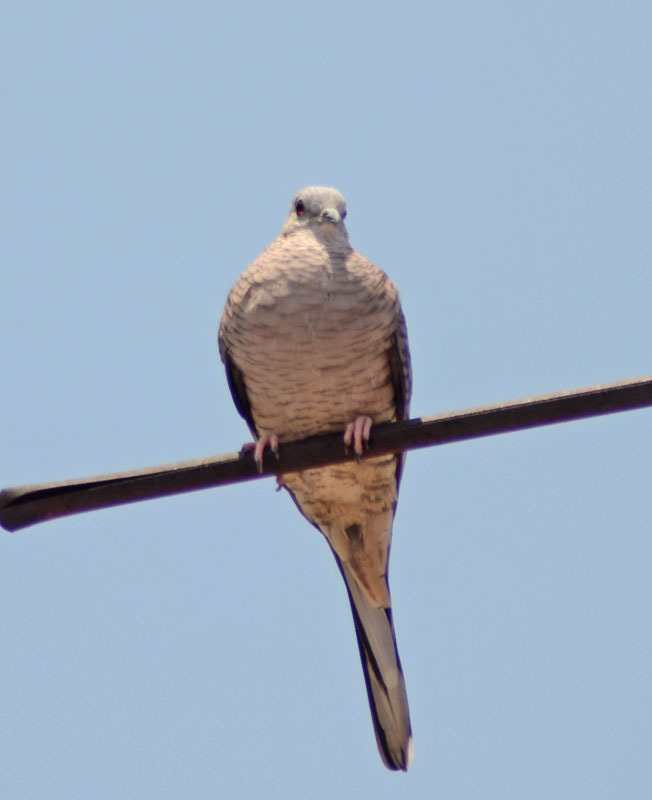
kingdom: Animalia
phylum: Chordata
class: Aves
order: Columbiformes
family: Columbidae
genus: Columbina
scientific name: Columbina inca
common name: Inca dove
